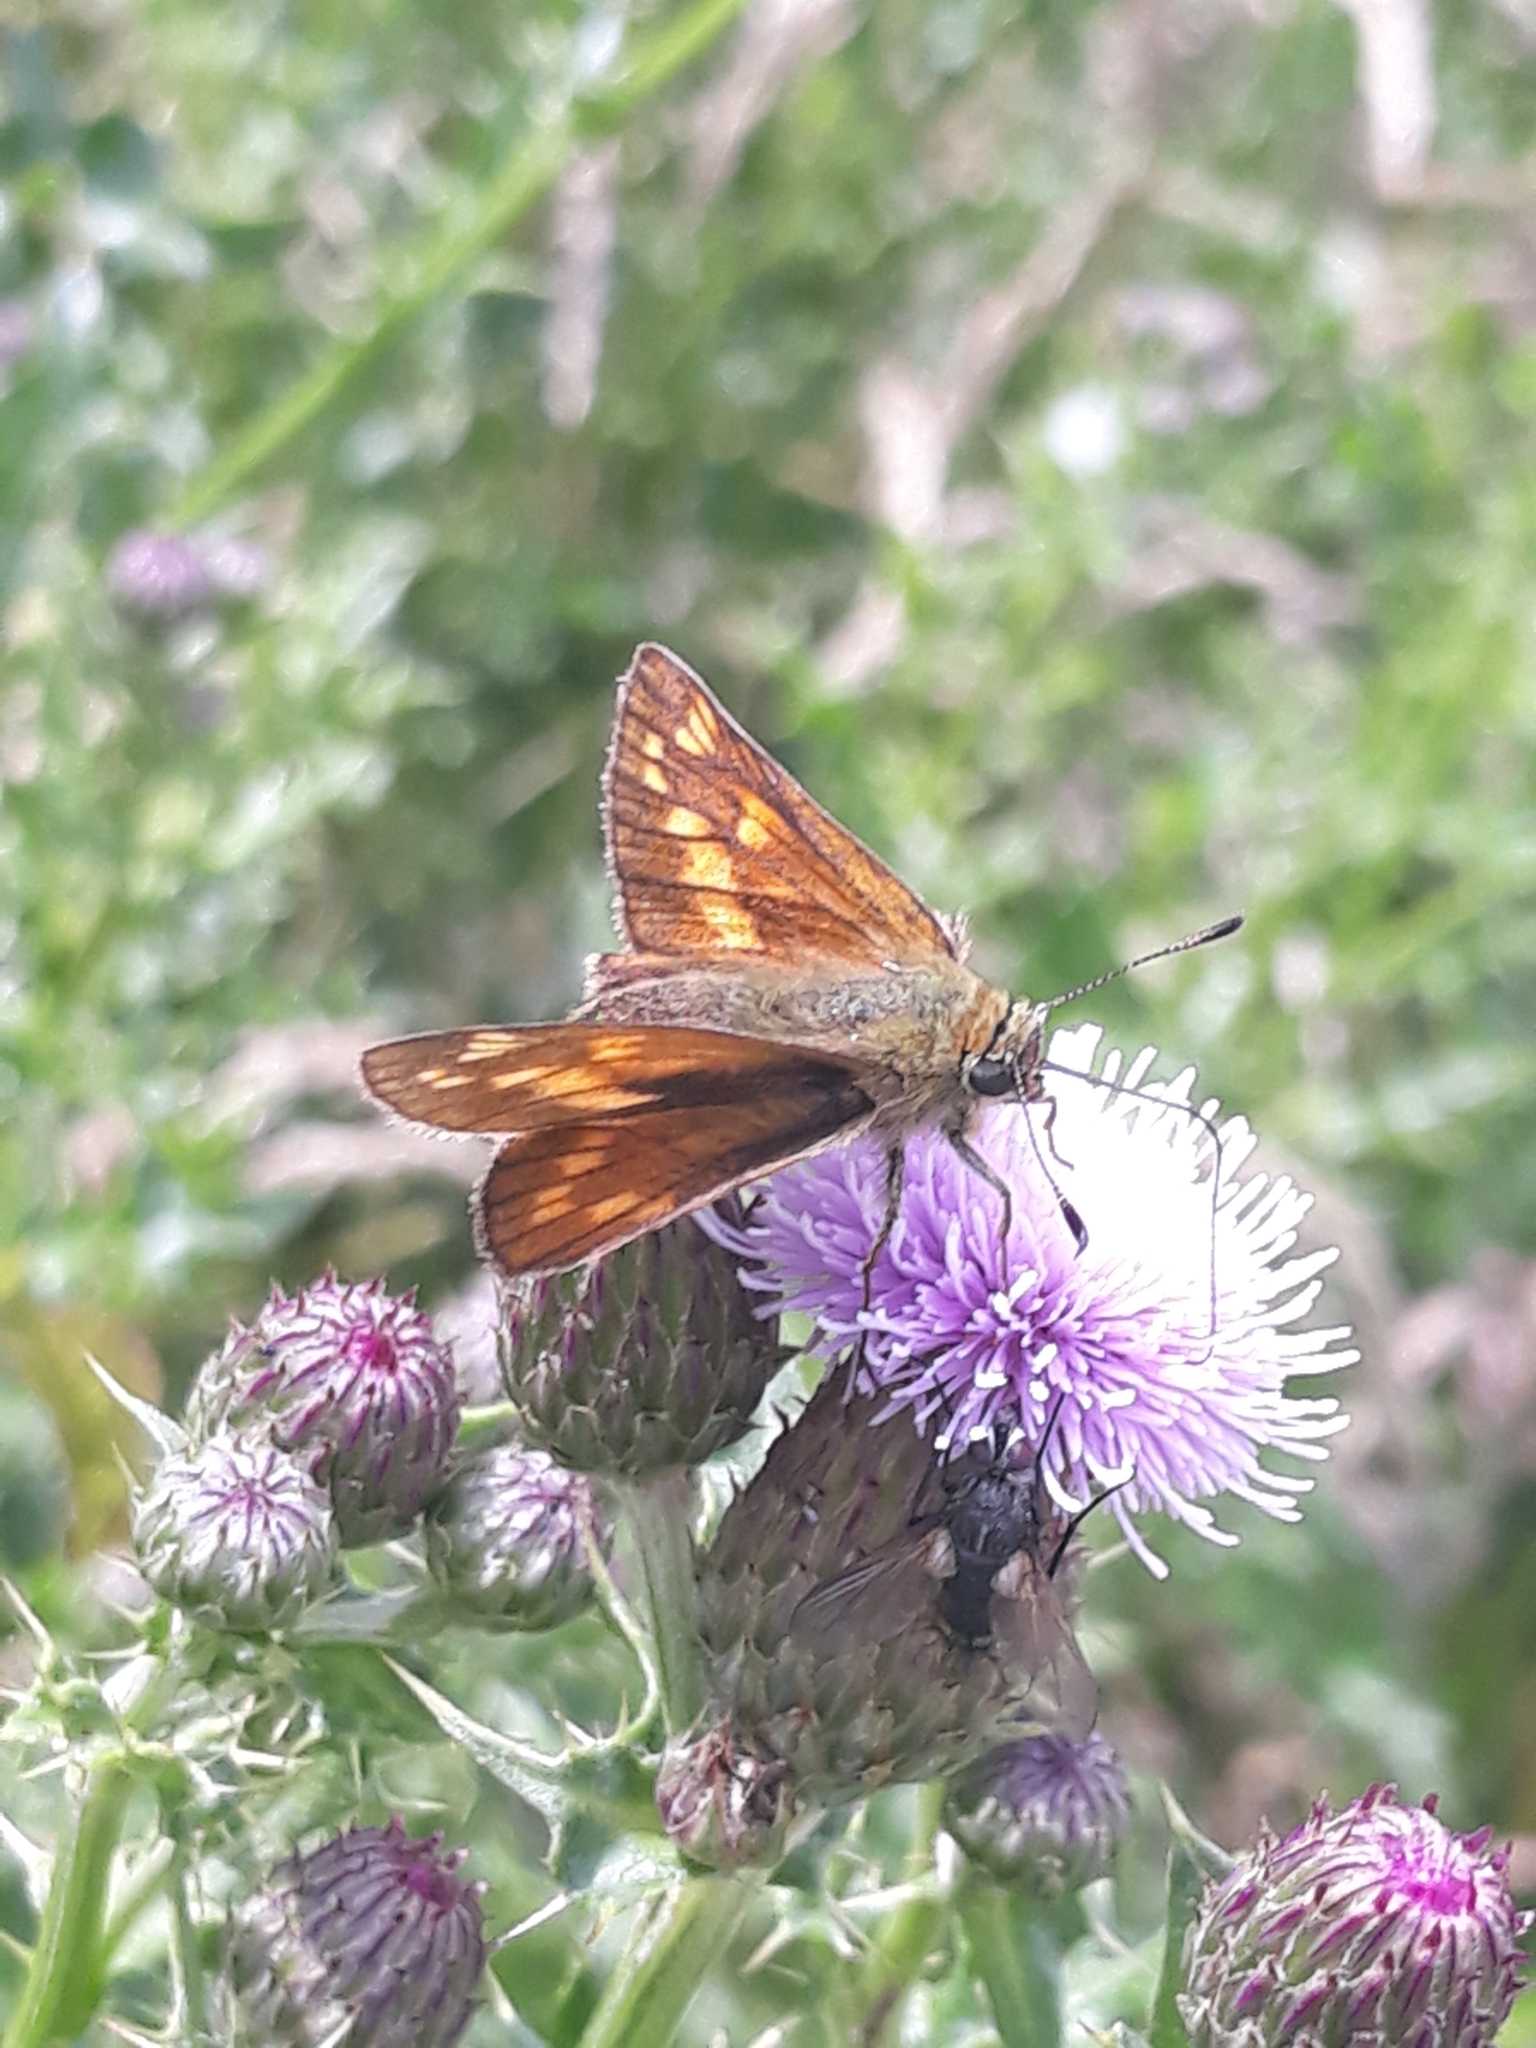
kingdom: Animalia
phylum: Arthropoda
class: Insecta
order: Lepidoptera
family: Hesperiidae
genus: Ochlodes
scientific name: Ochlodes venata
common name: Large skipper
